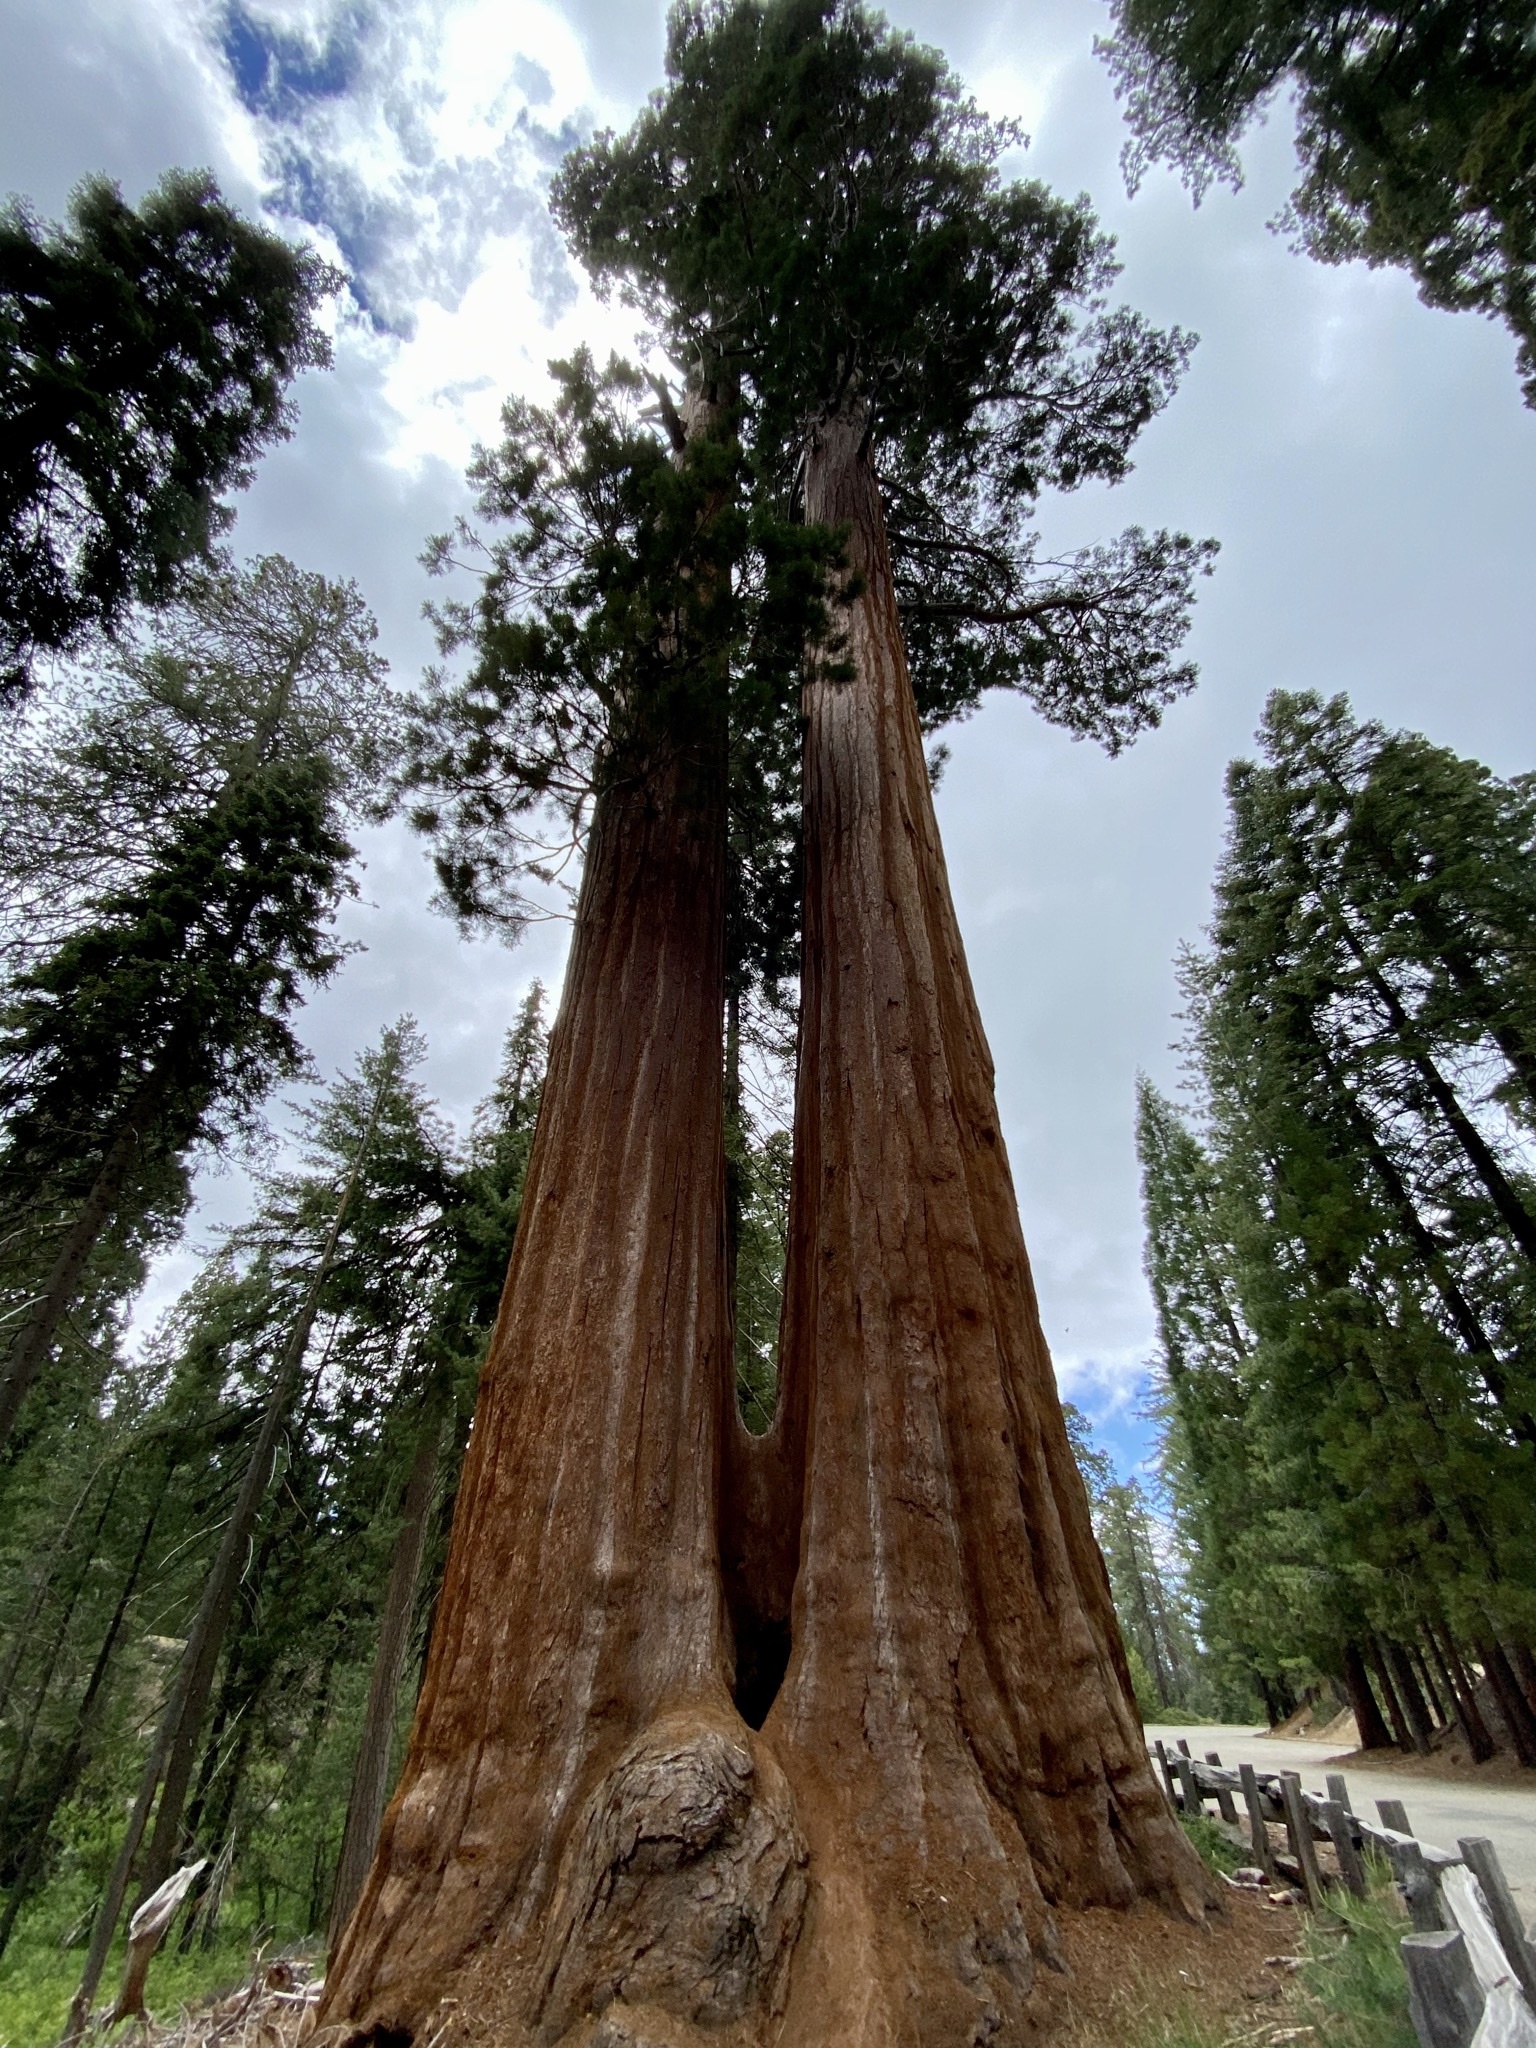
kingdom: Plantae
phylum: Tracheophyta
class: Pinopsida
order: Pinales
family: Cupressaceae
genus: Sequoiadendron
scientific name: Sequoiadendron giganteum
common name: Wellingtonia
